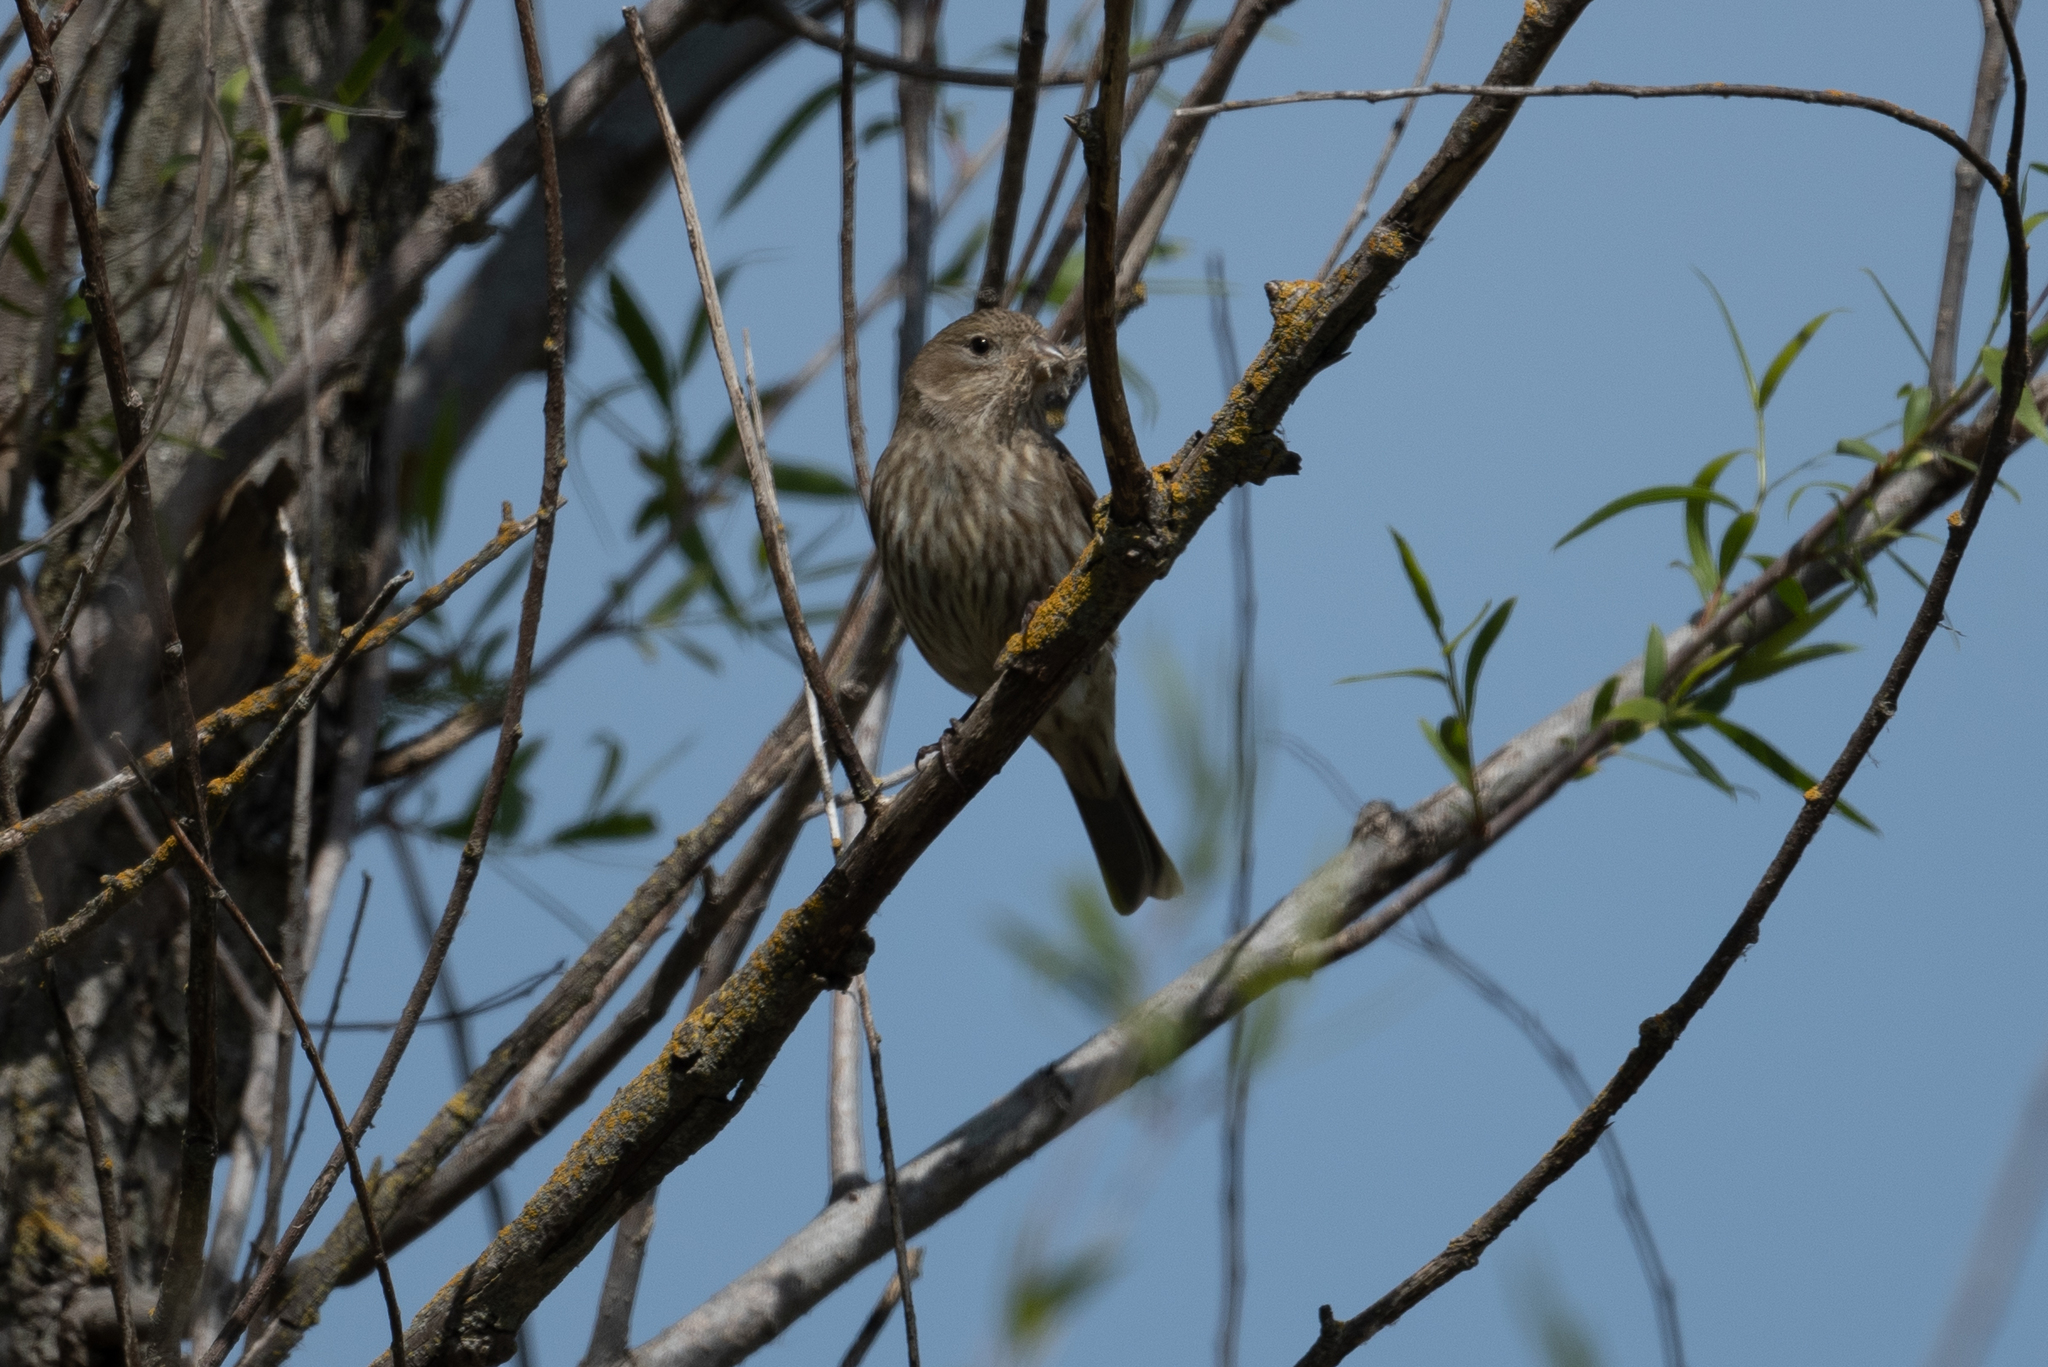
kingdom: Animalia
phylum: Chordata
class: Aves
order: Passeriformes
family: Fringillidae
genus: Haemorhous
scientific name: Haemorhous mexicanus
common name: House finch
